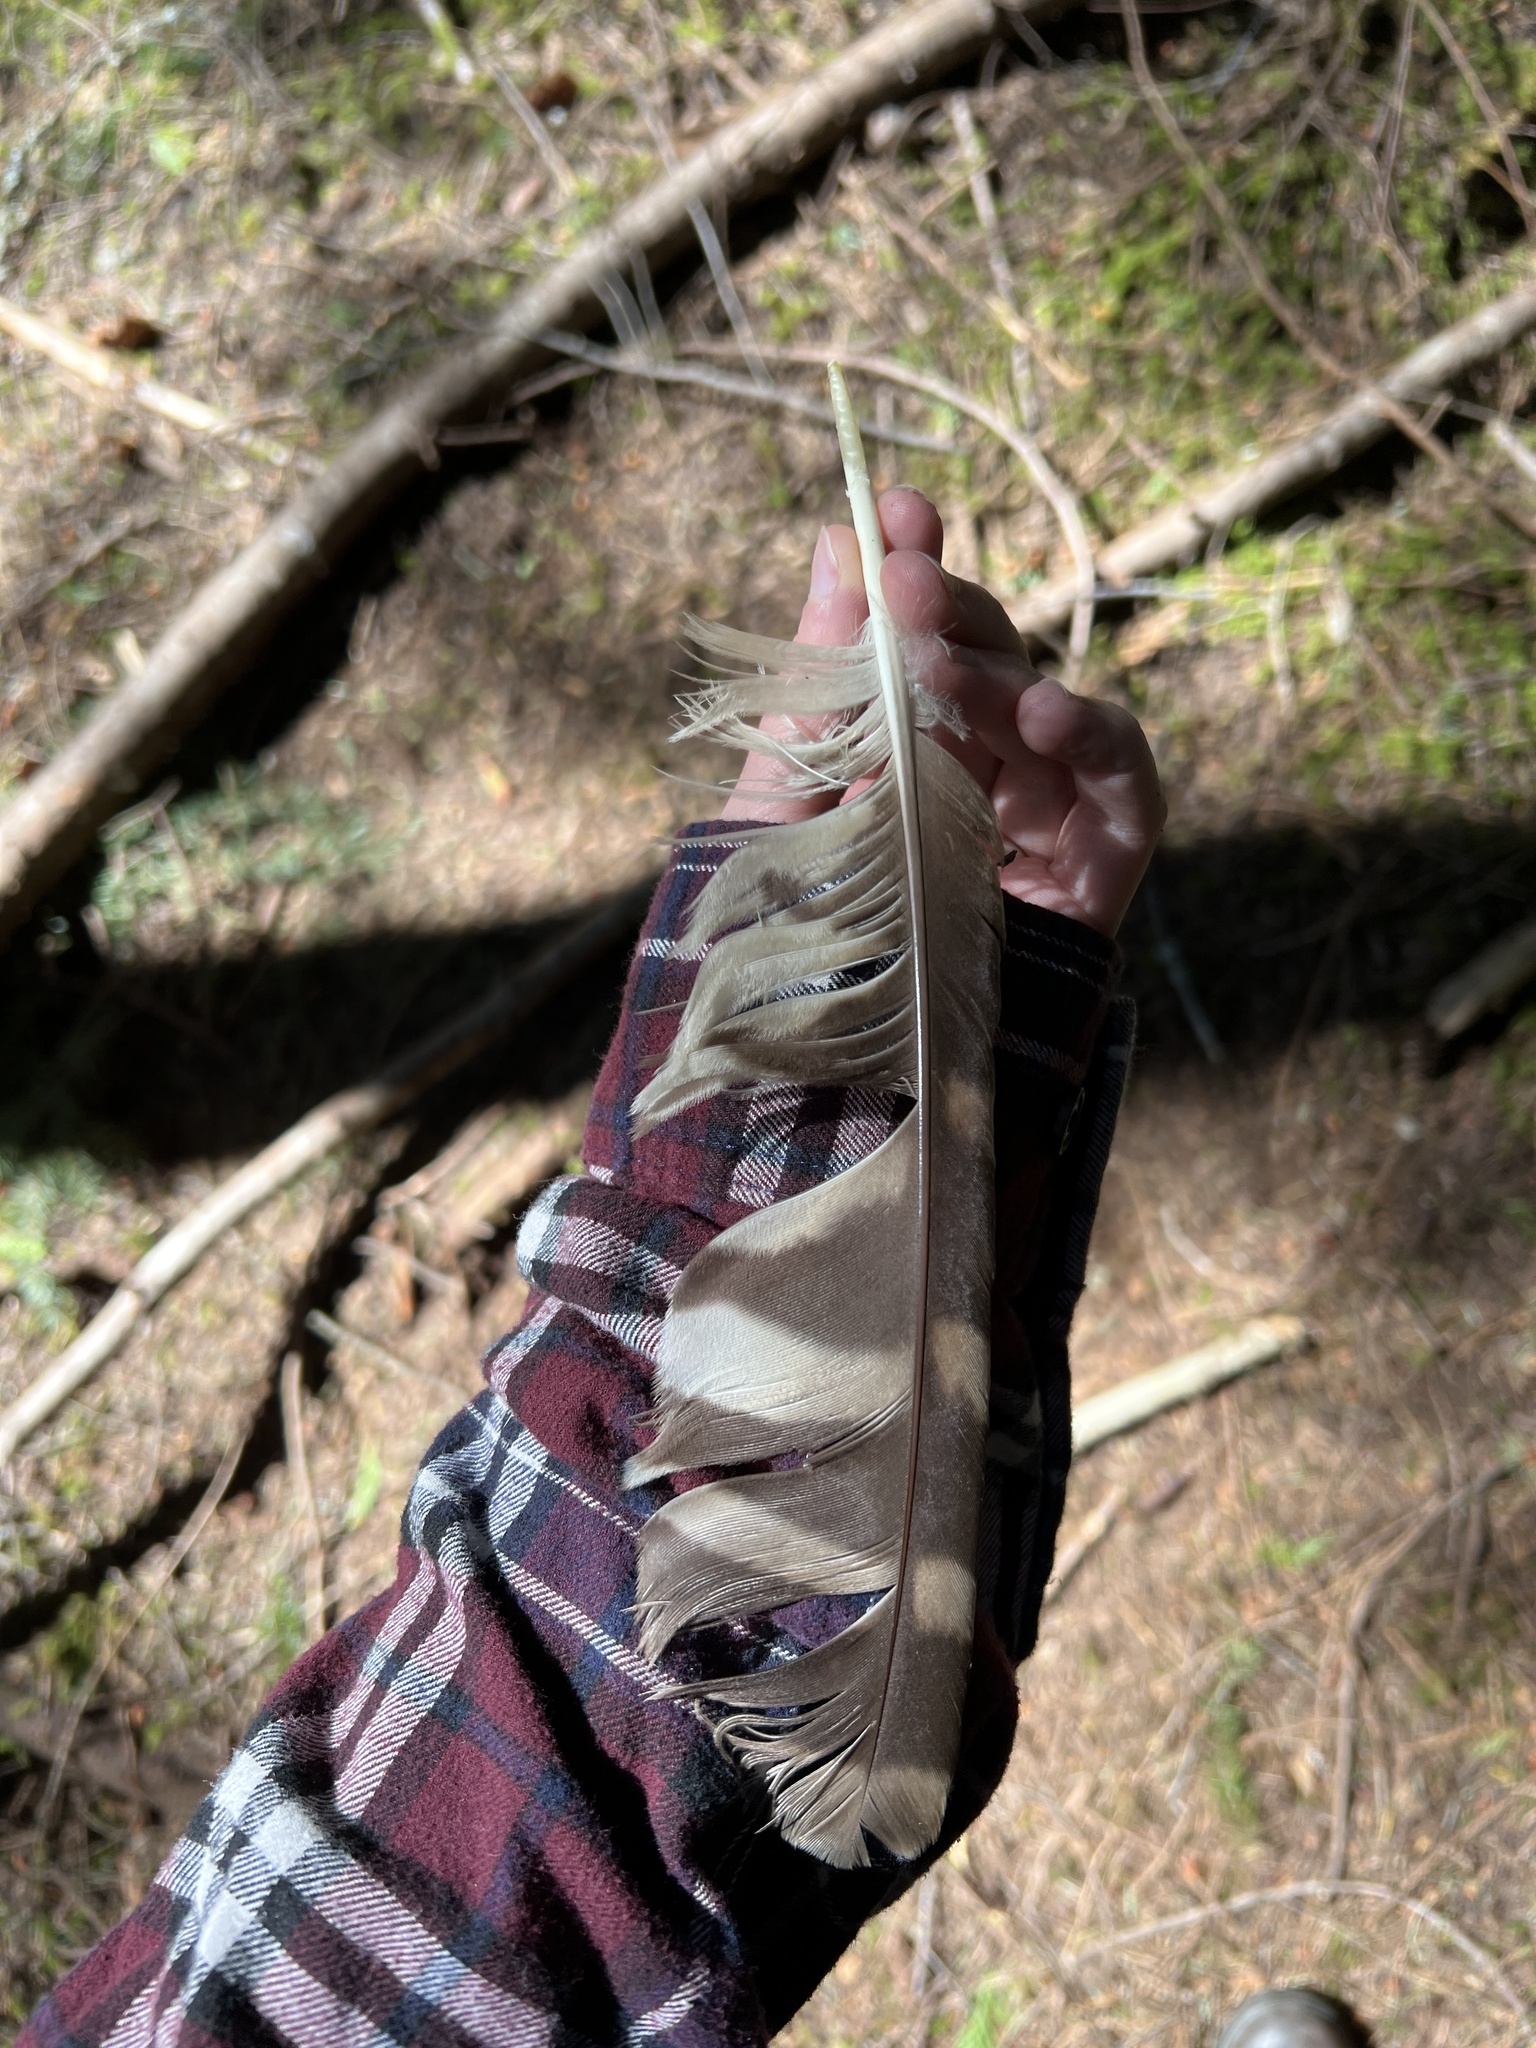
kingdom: Animalia
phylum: Chordata
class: Aves
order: Strigiformes
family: Strigidae
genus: Strix
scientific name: Strix varia
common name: Barred owl
